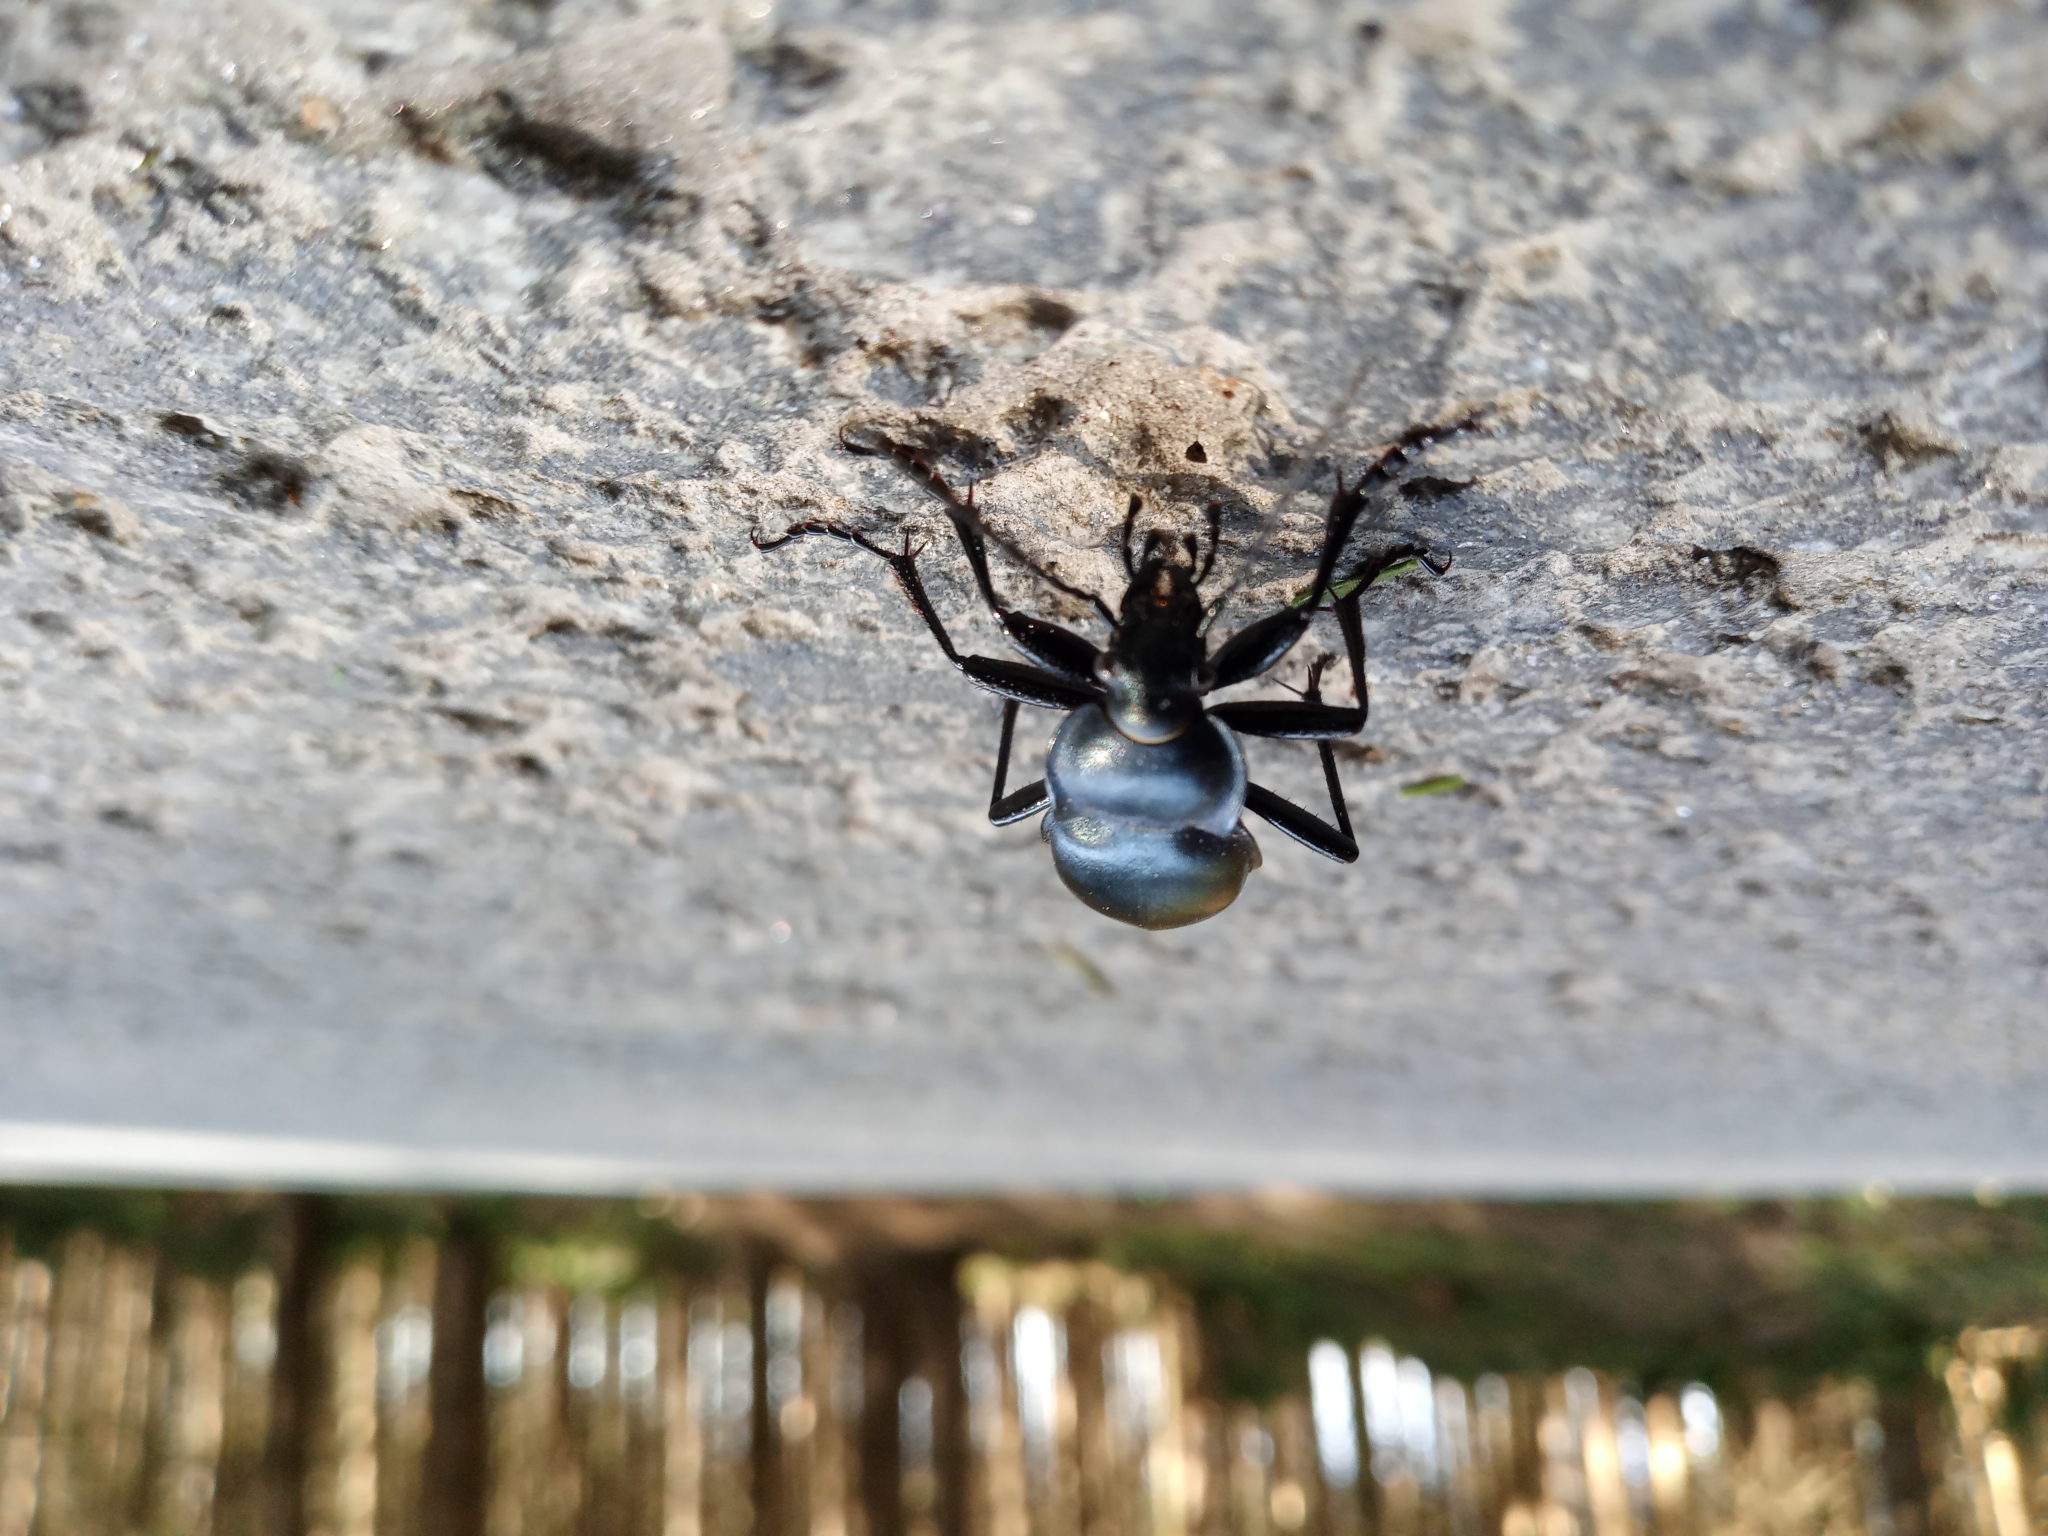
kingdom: Animalia
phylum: Arthropoda
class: Insecta
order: Coleoptera
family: Carabidae
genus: Carabus
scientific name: Carabus glabratus
